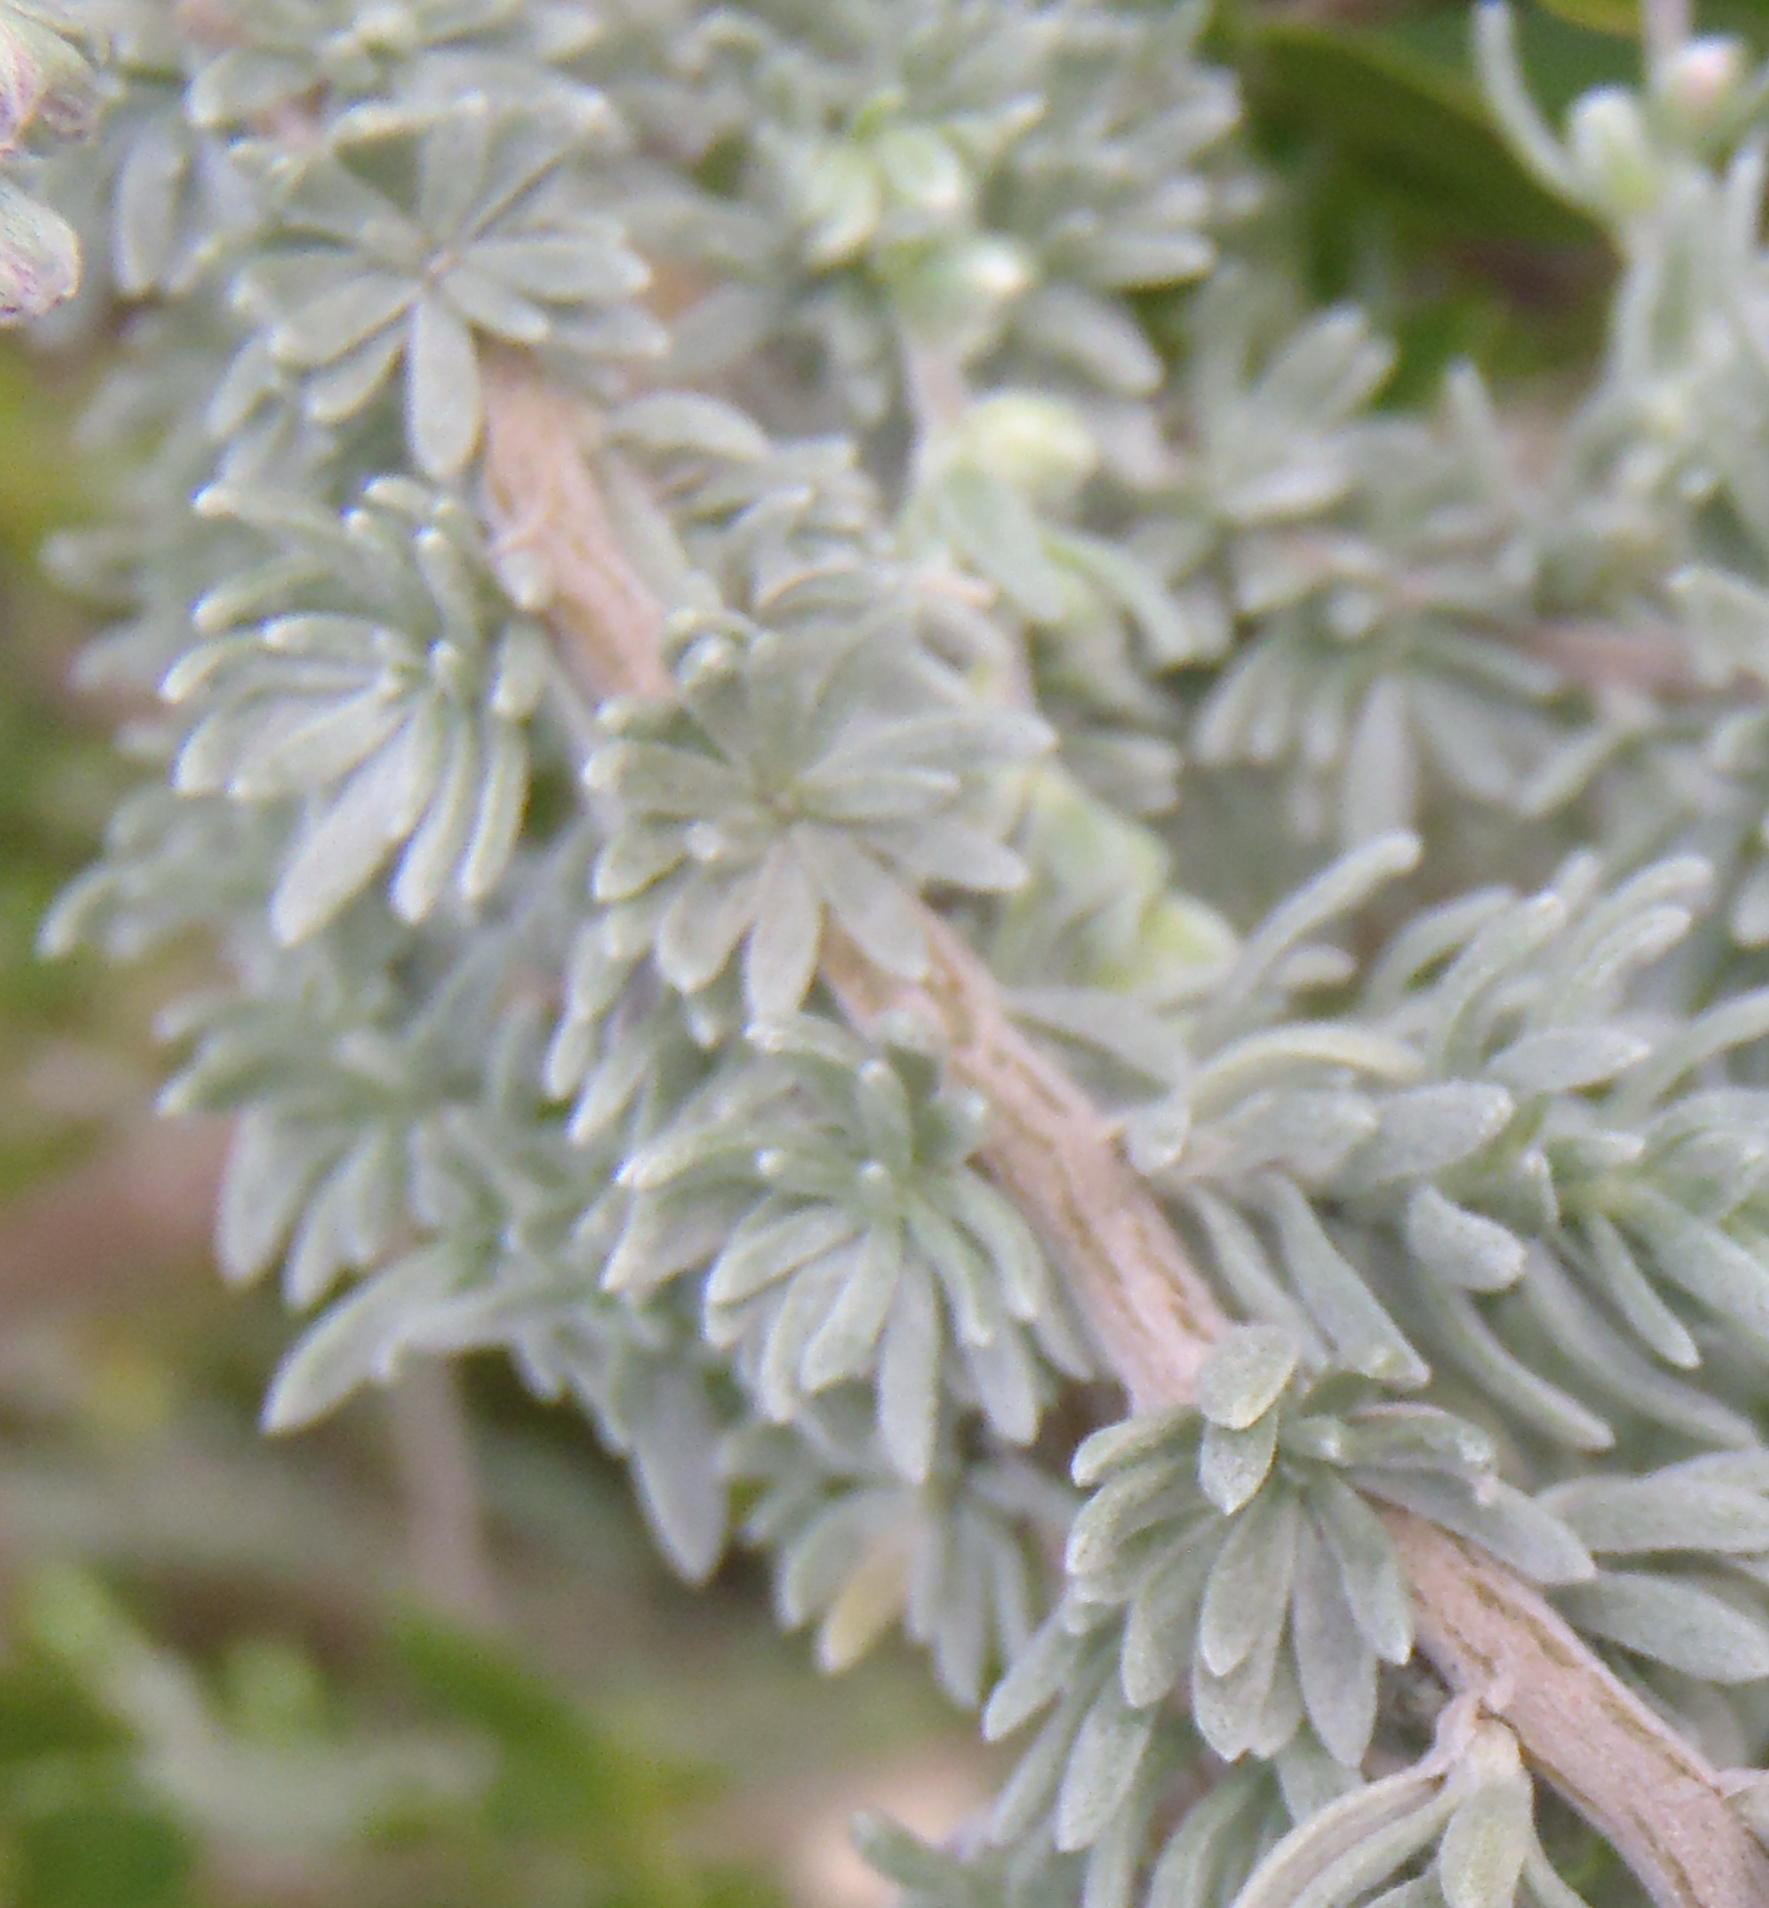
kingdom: Plantae
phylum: Tracheophyta
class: Magnoliopsida
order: Asterales
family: Asteraceae
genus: Eriocephalus
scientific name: Eriocephalus racemosus
